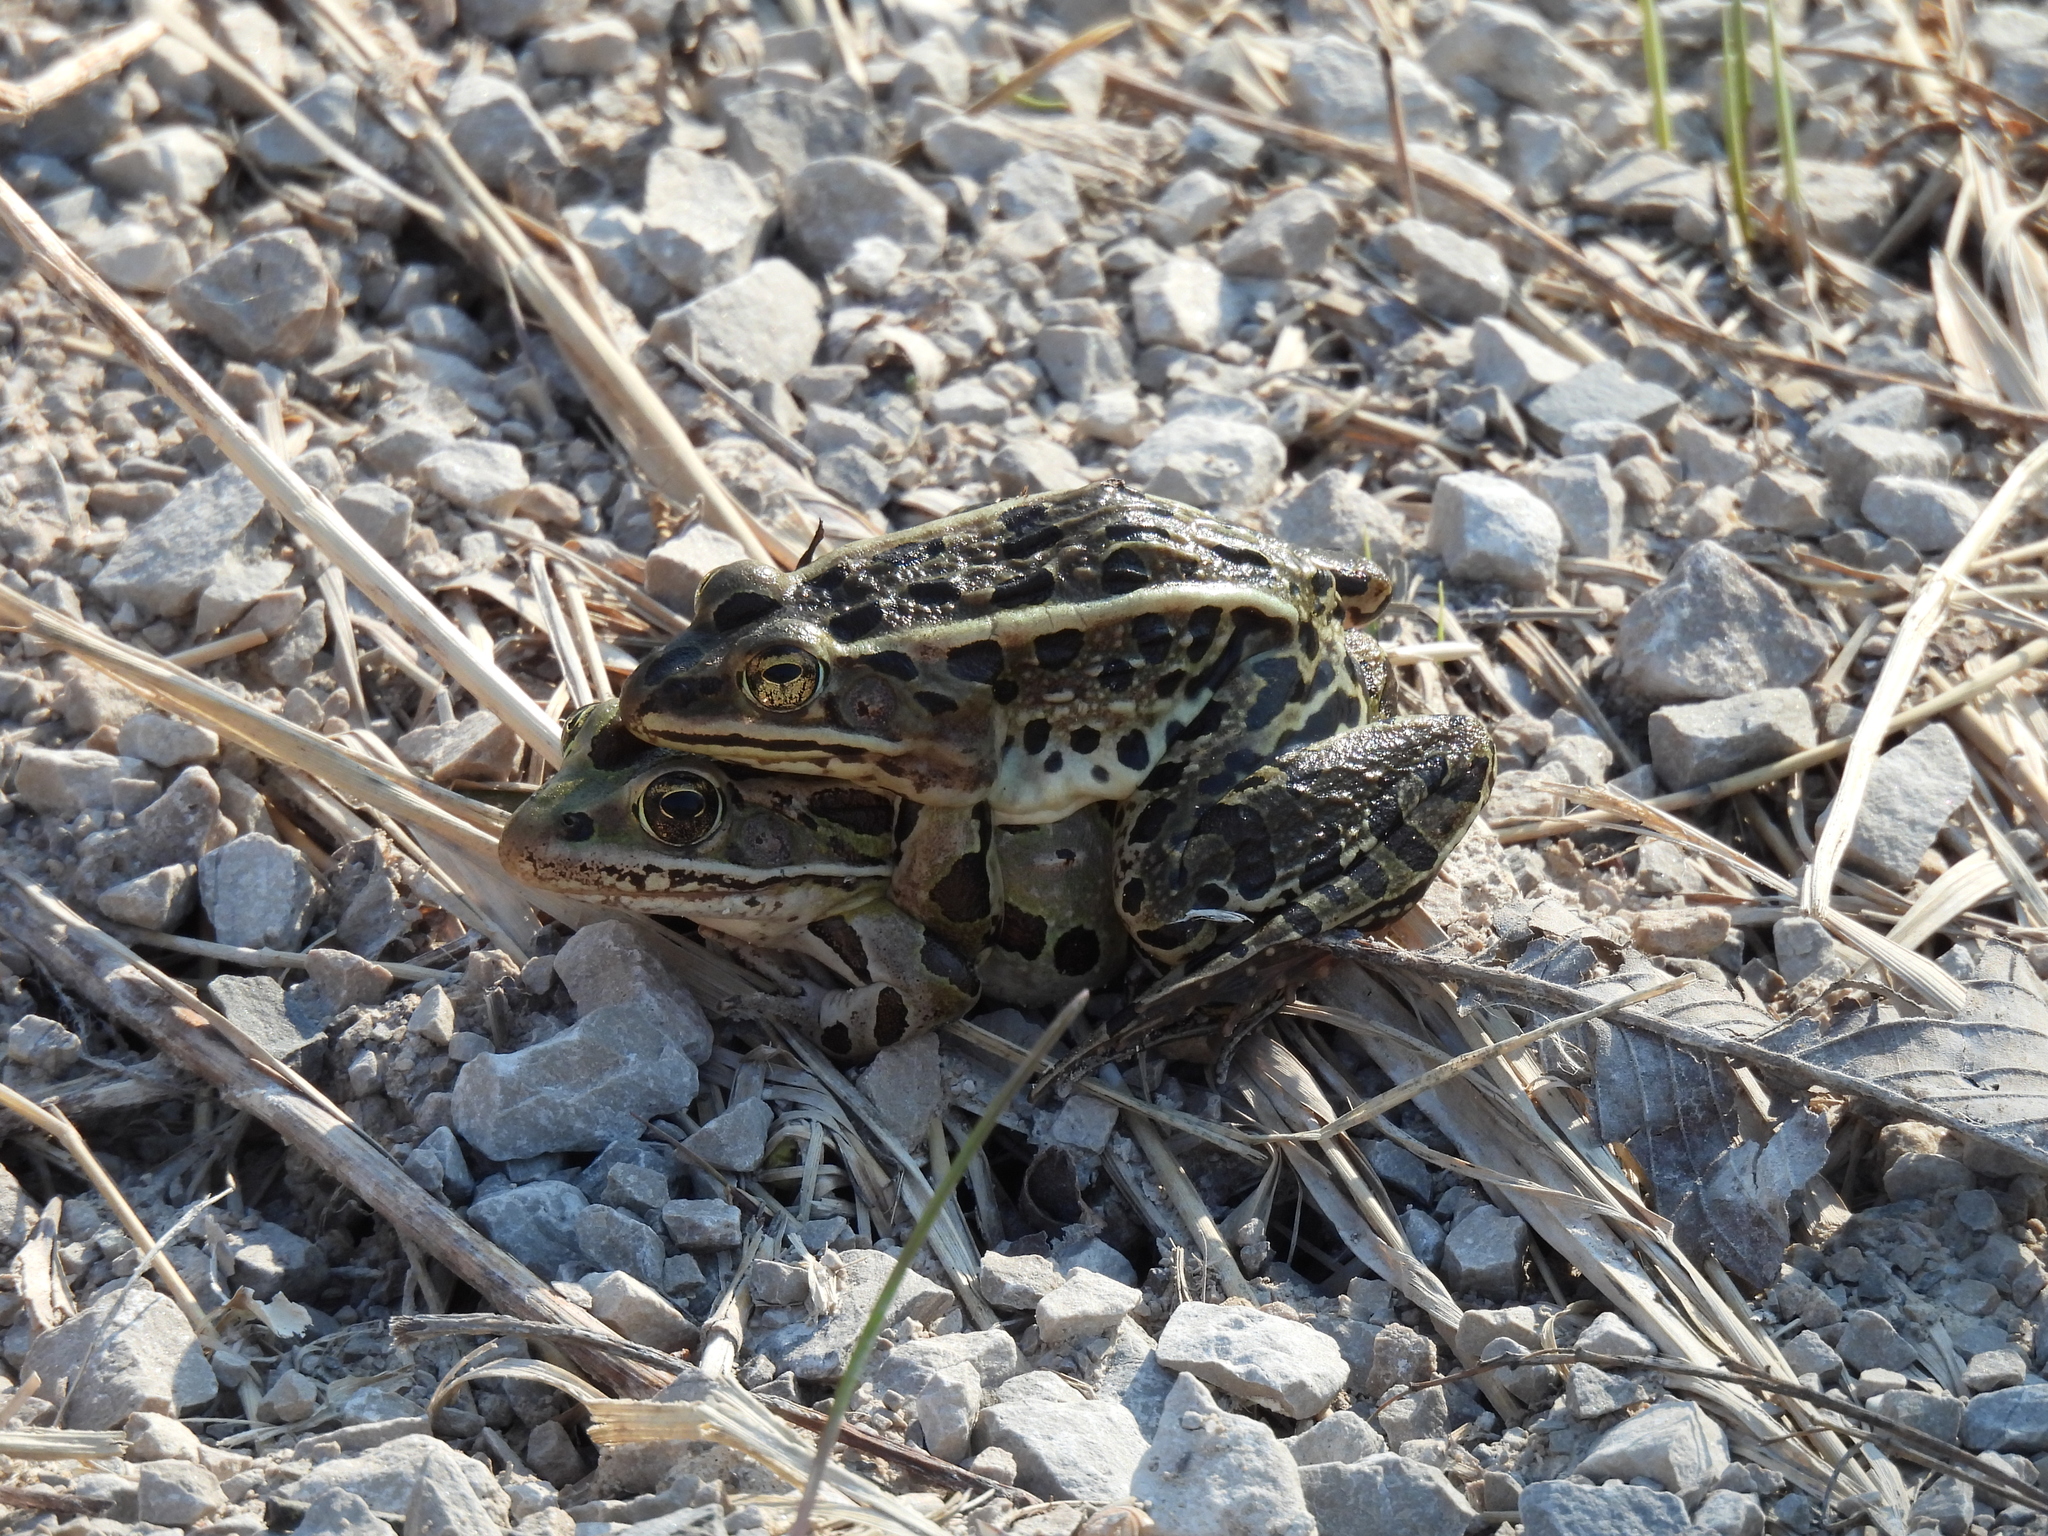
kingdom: Animalia
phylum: Chordata
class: Amphibia
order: Anura
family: Ranidae
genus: Lithobates
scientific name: Lithobates pipiens
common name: Northern leopard frog
